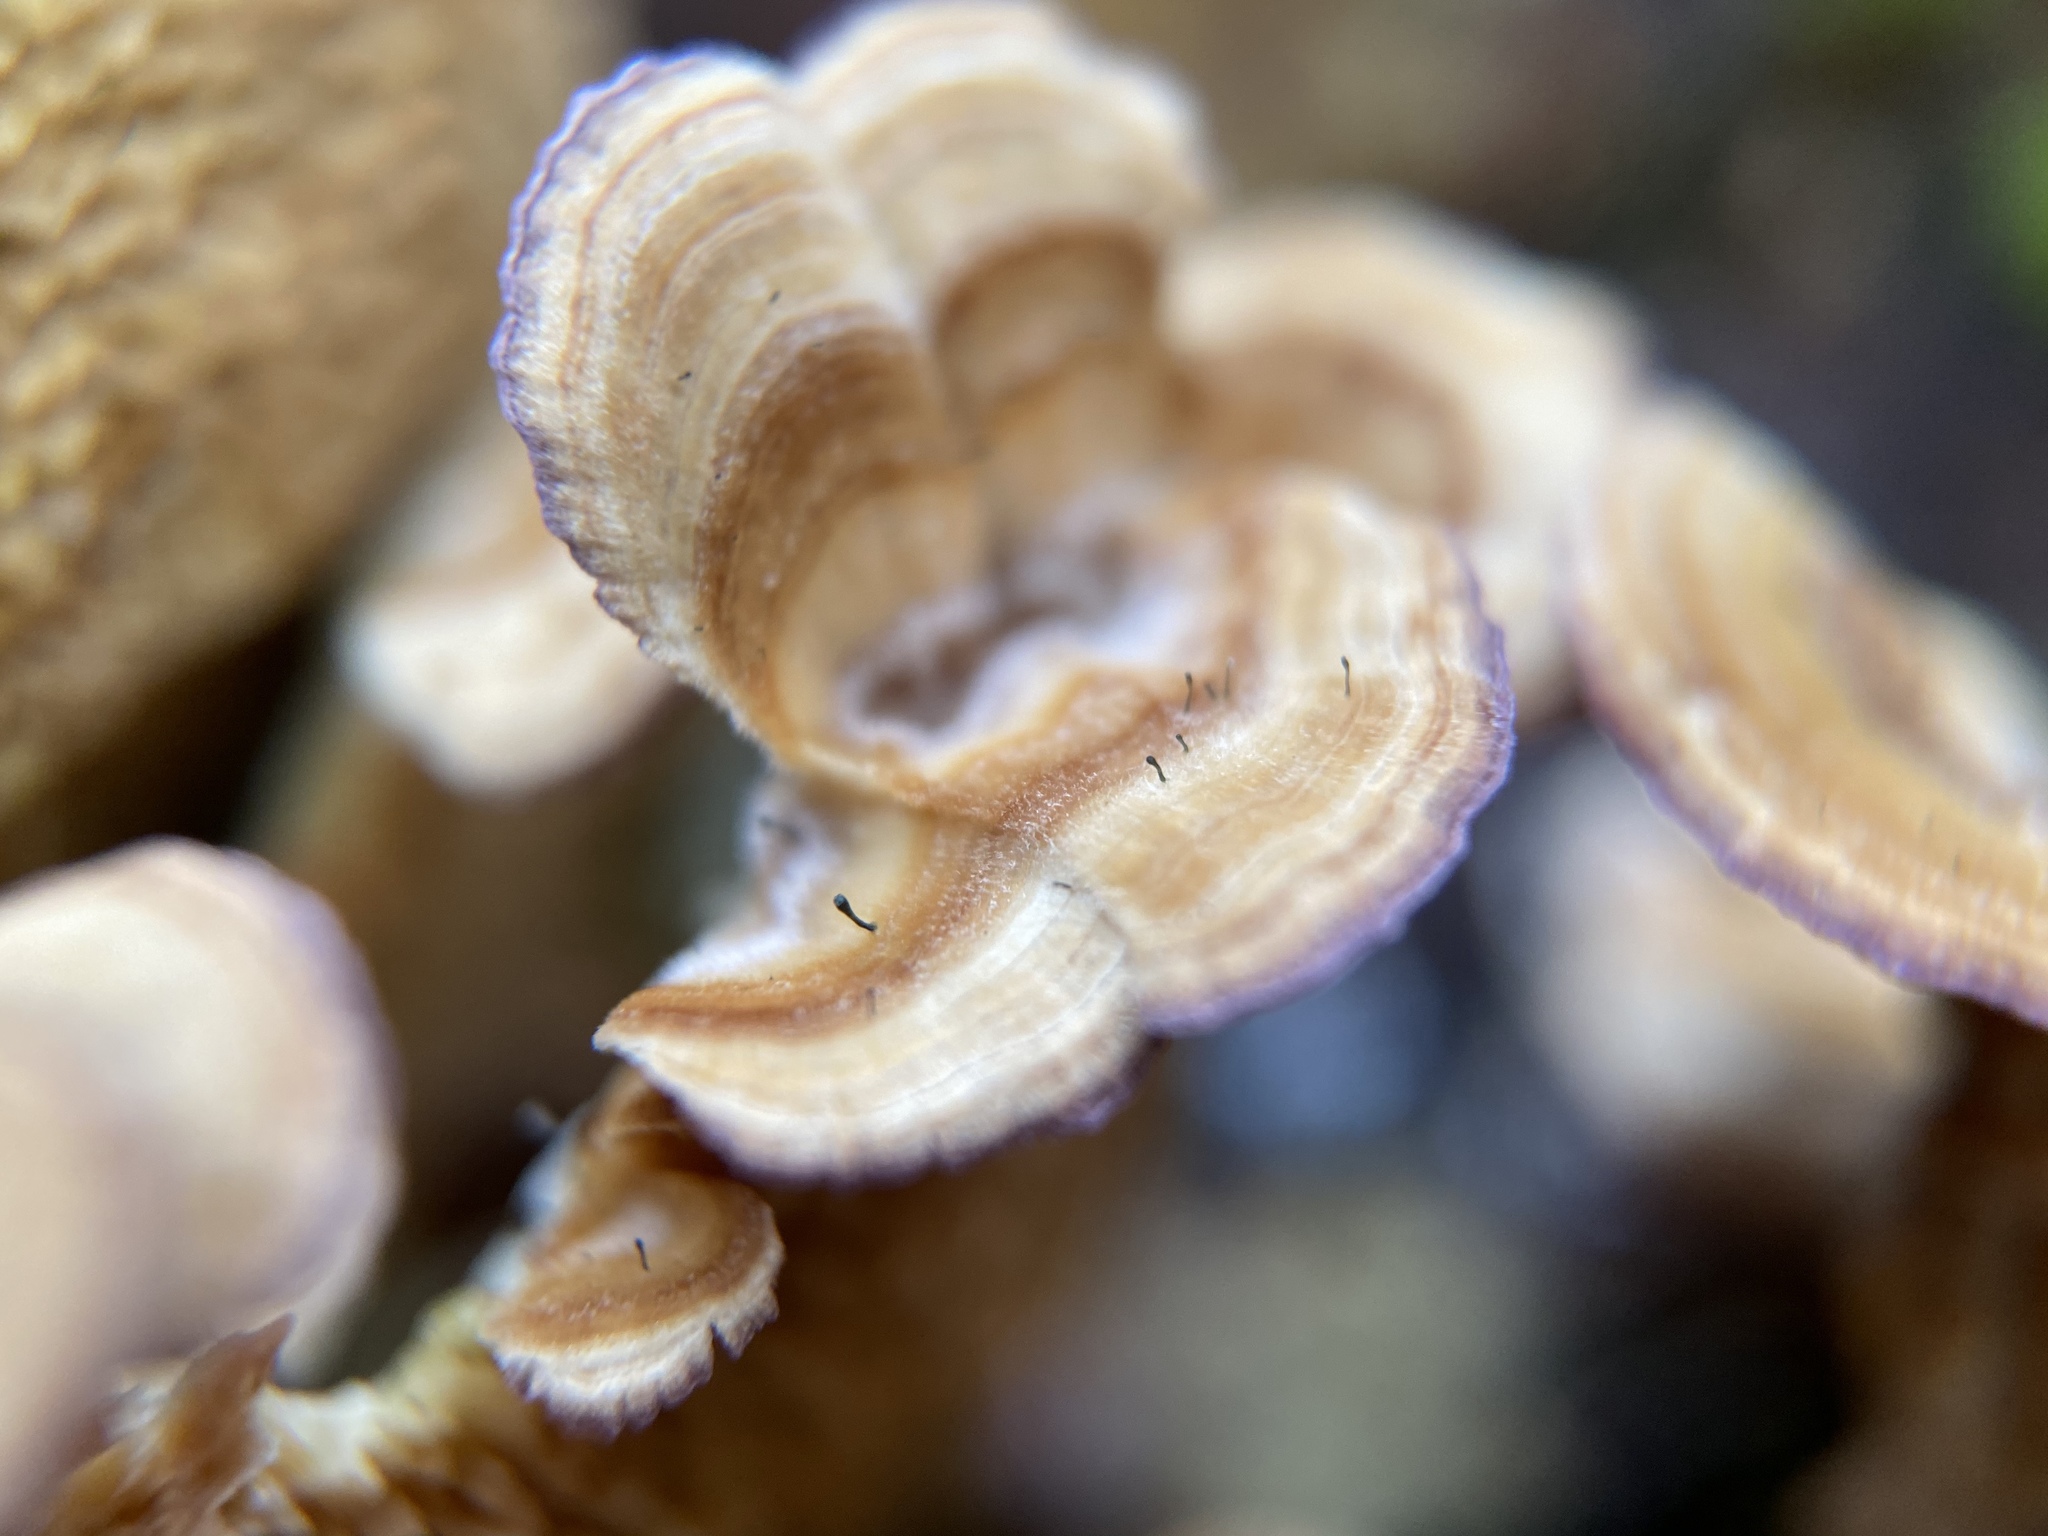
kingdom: Fungi
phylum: Ascomycota
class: Eurotiomycetes
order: Mycocaliciales
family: Mycocaliciaceae
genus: Phaeocalicium
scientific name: Phaeocalicium polyporaeum
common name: Fairy pins
